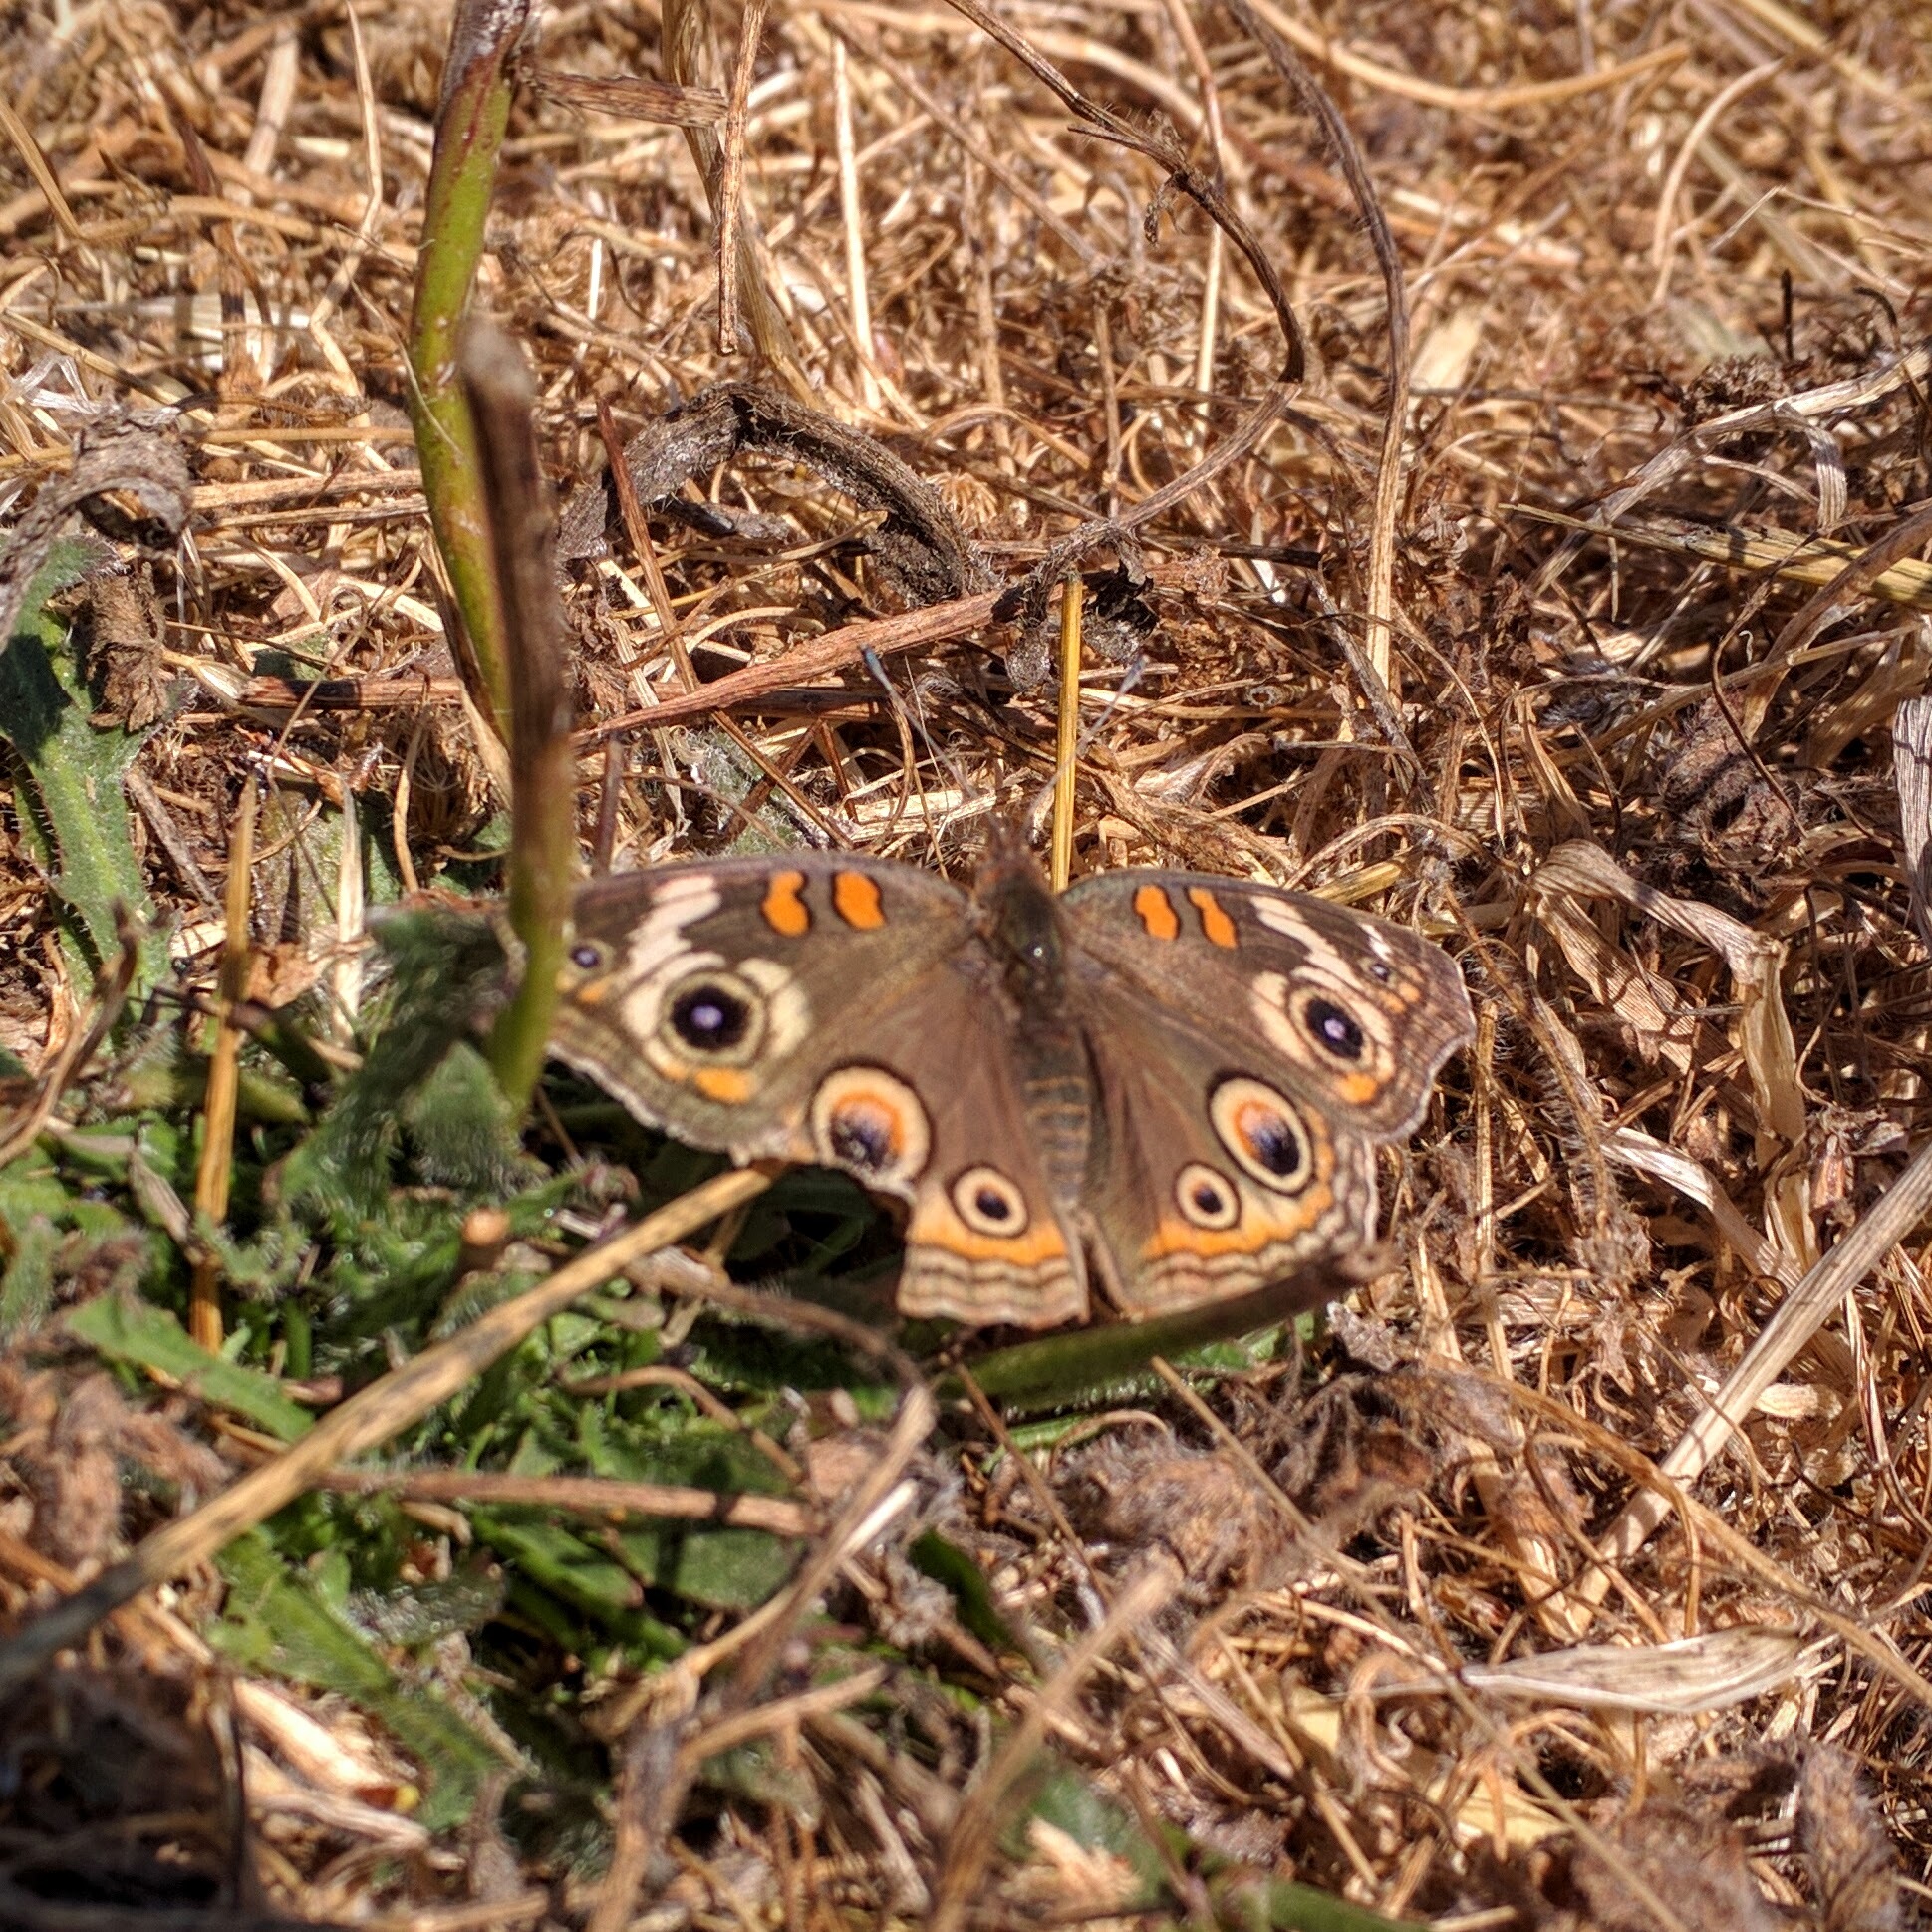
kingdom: Animalia
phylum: Arthropoda
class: Insecta
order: Lepidoptera
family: Nymphalidae
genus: Junonia
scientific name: Junonia grisea
